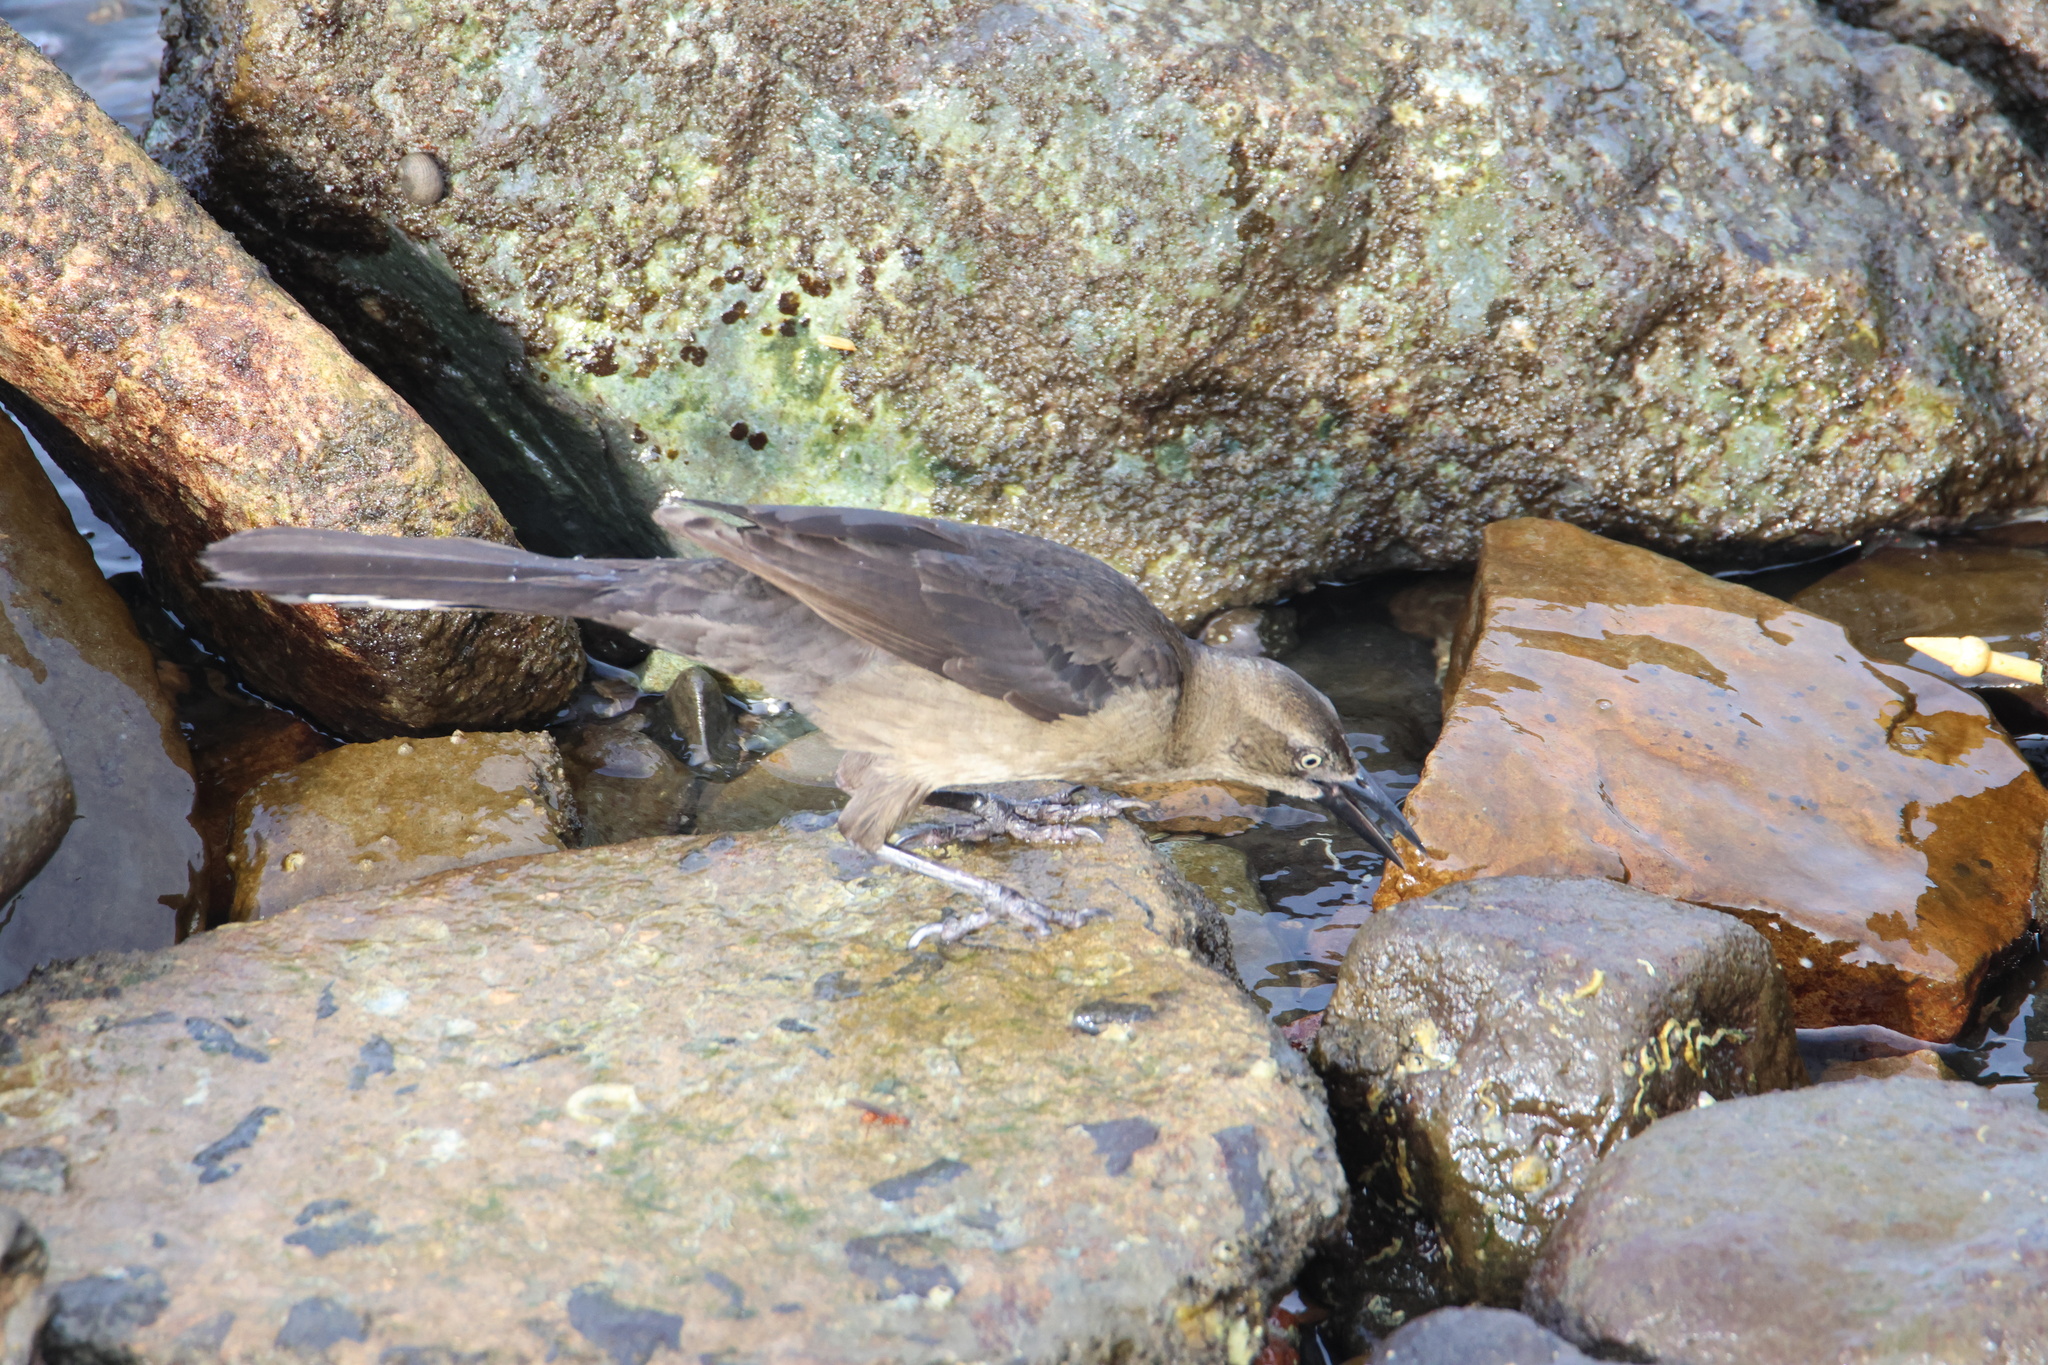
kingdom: Animalia
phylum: Chordata
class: Aves
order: Passeriformes
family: Icteridae
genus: Quiscalus
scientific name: Quiscalus mexicanus
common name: Great-tailed grackle
